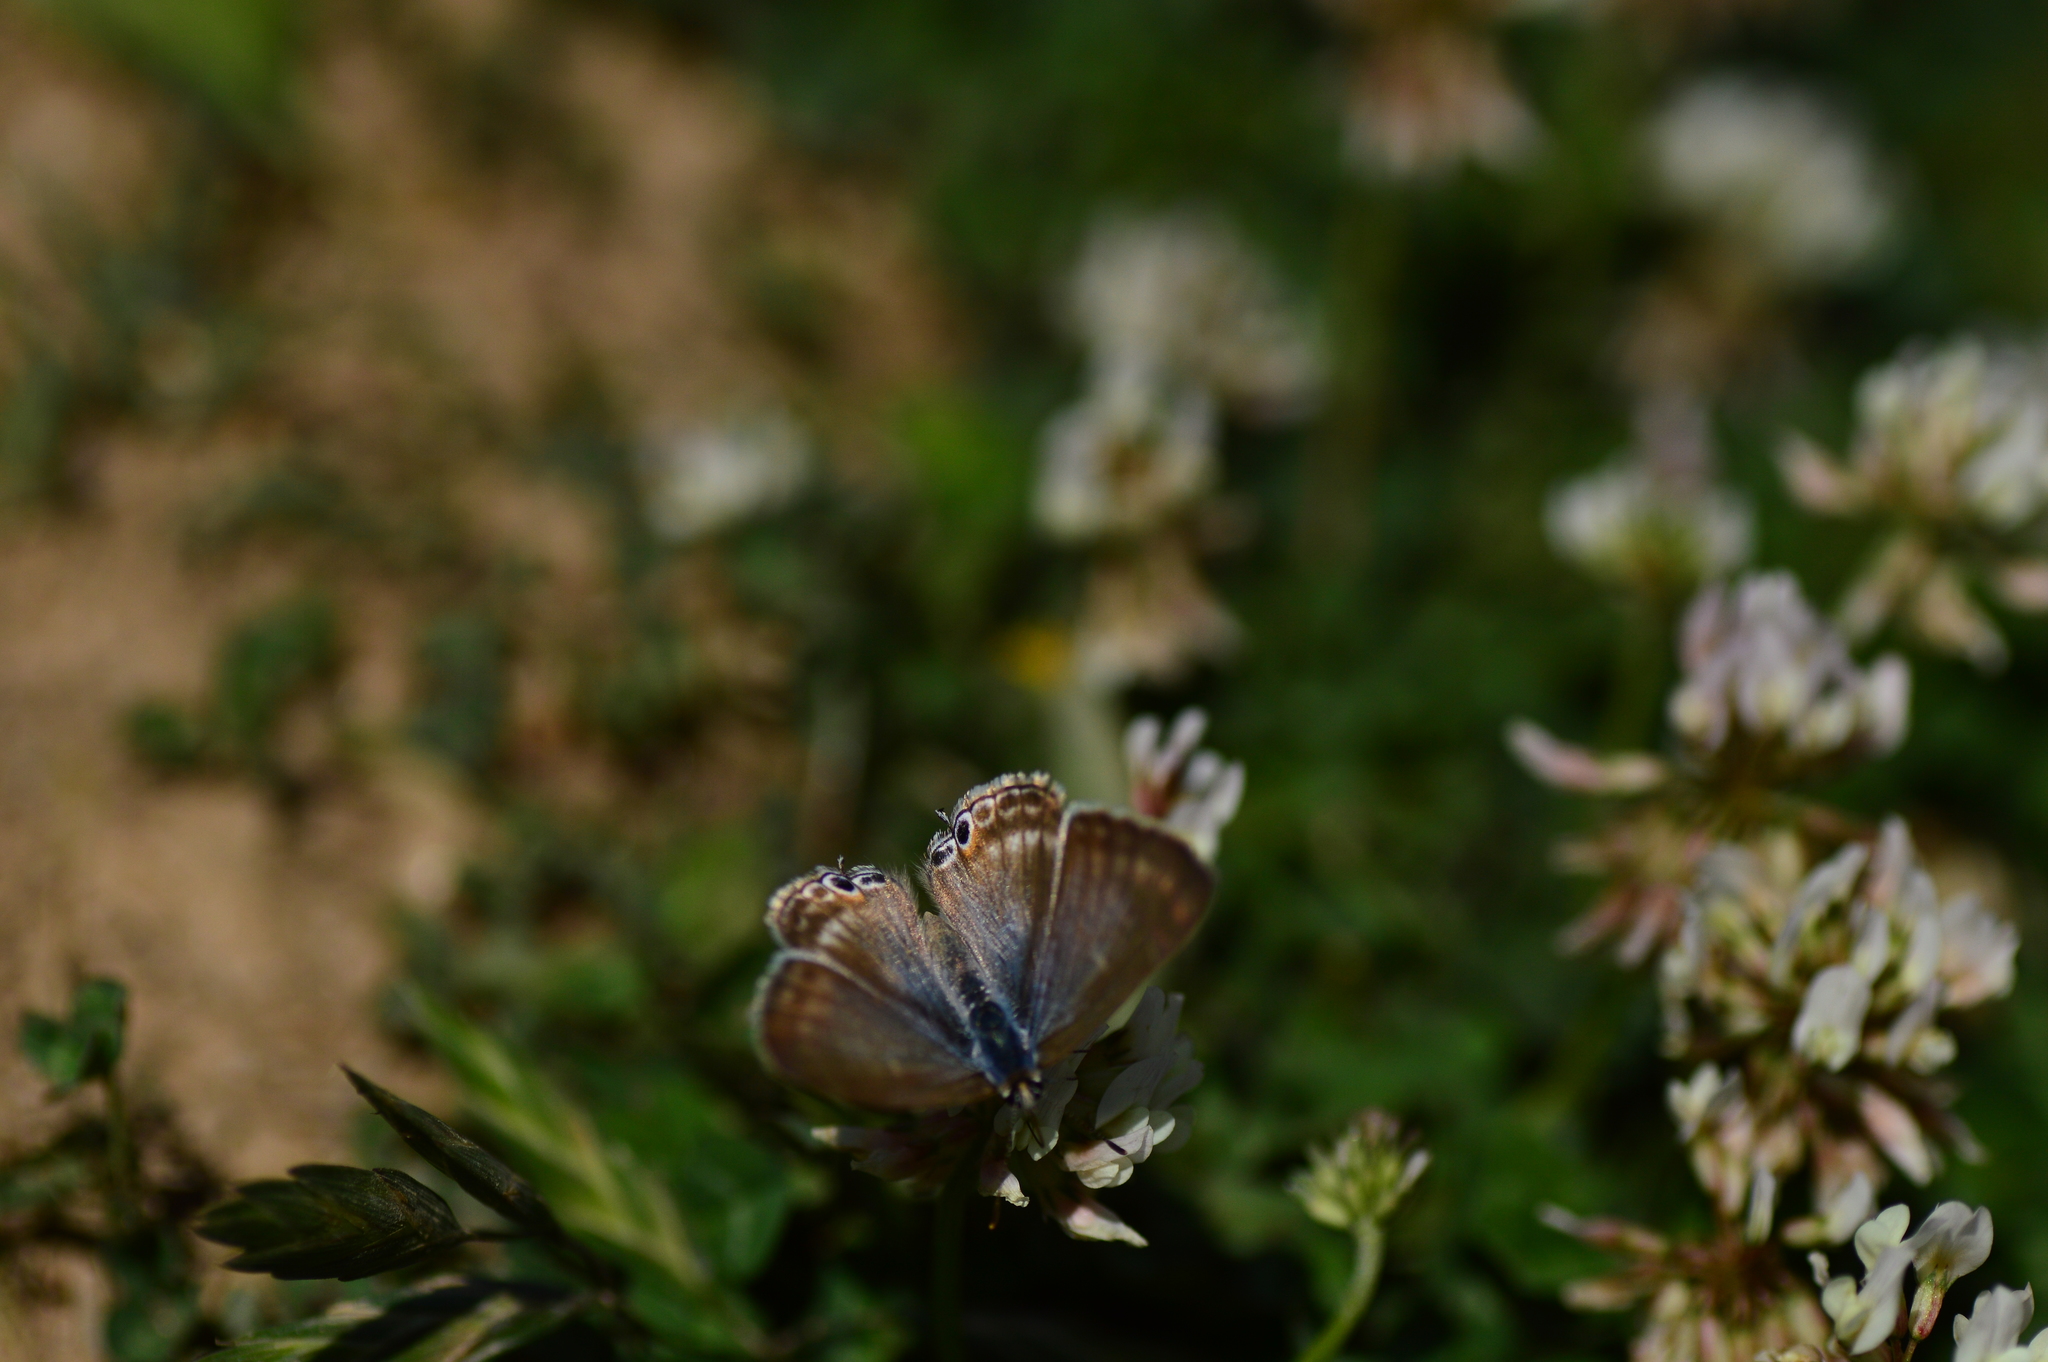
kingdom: Animalia
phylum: Arthropoda
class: Insecta
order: Lepidoptera
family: Lycaenidae
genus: Lampides
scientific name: Lampides boeticus
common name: Long-tailed blue
